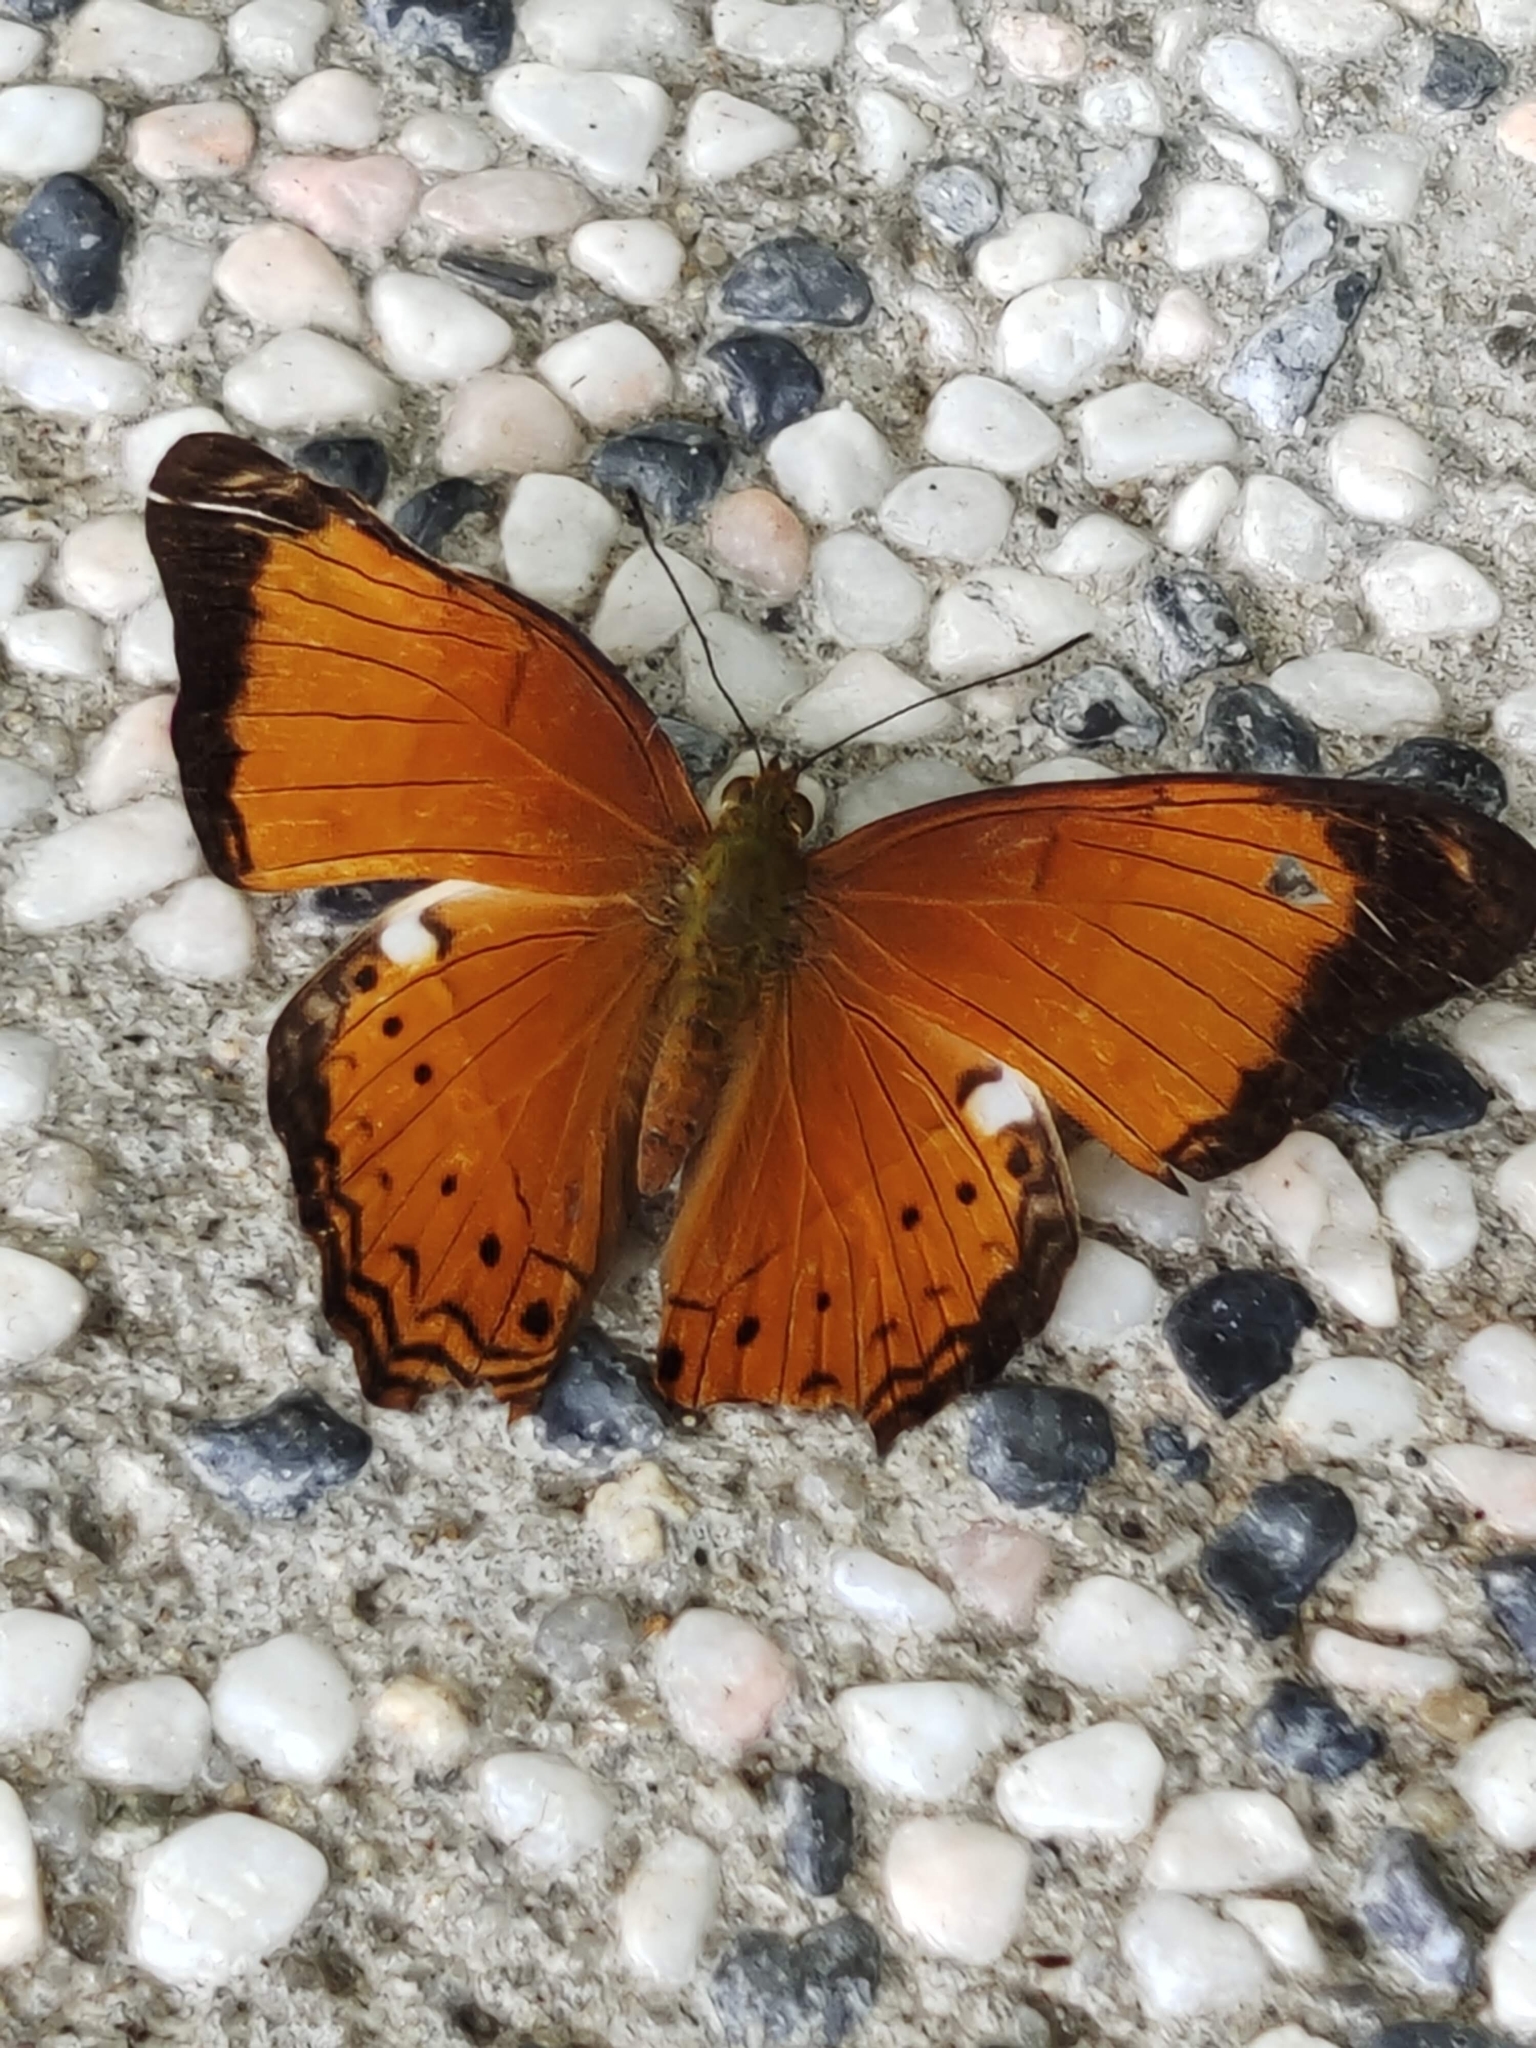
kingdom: Animalia
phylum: Arthropoda
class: Insecta
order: Lepidoptera
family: Nymphalidae
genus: Cirrochroa
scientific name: Cirrochroa emalea
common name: Malay yeoman
